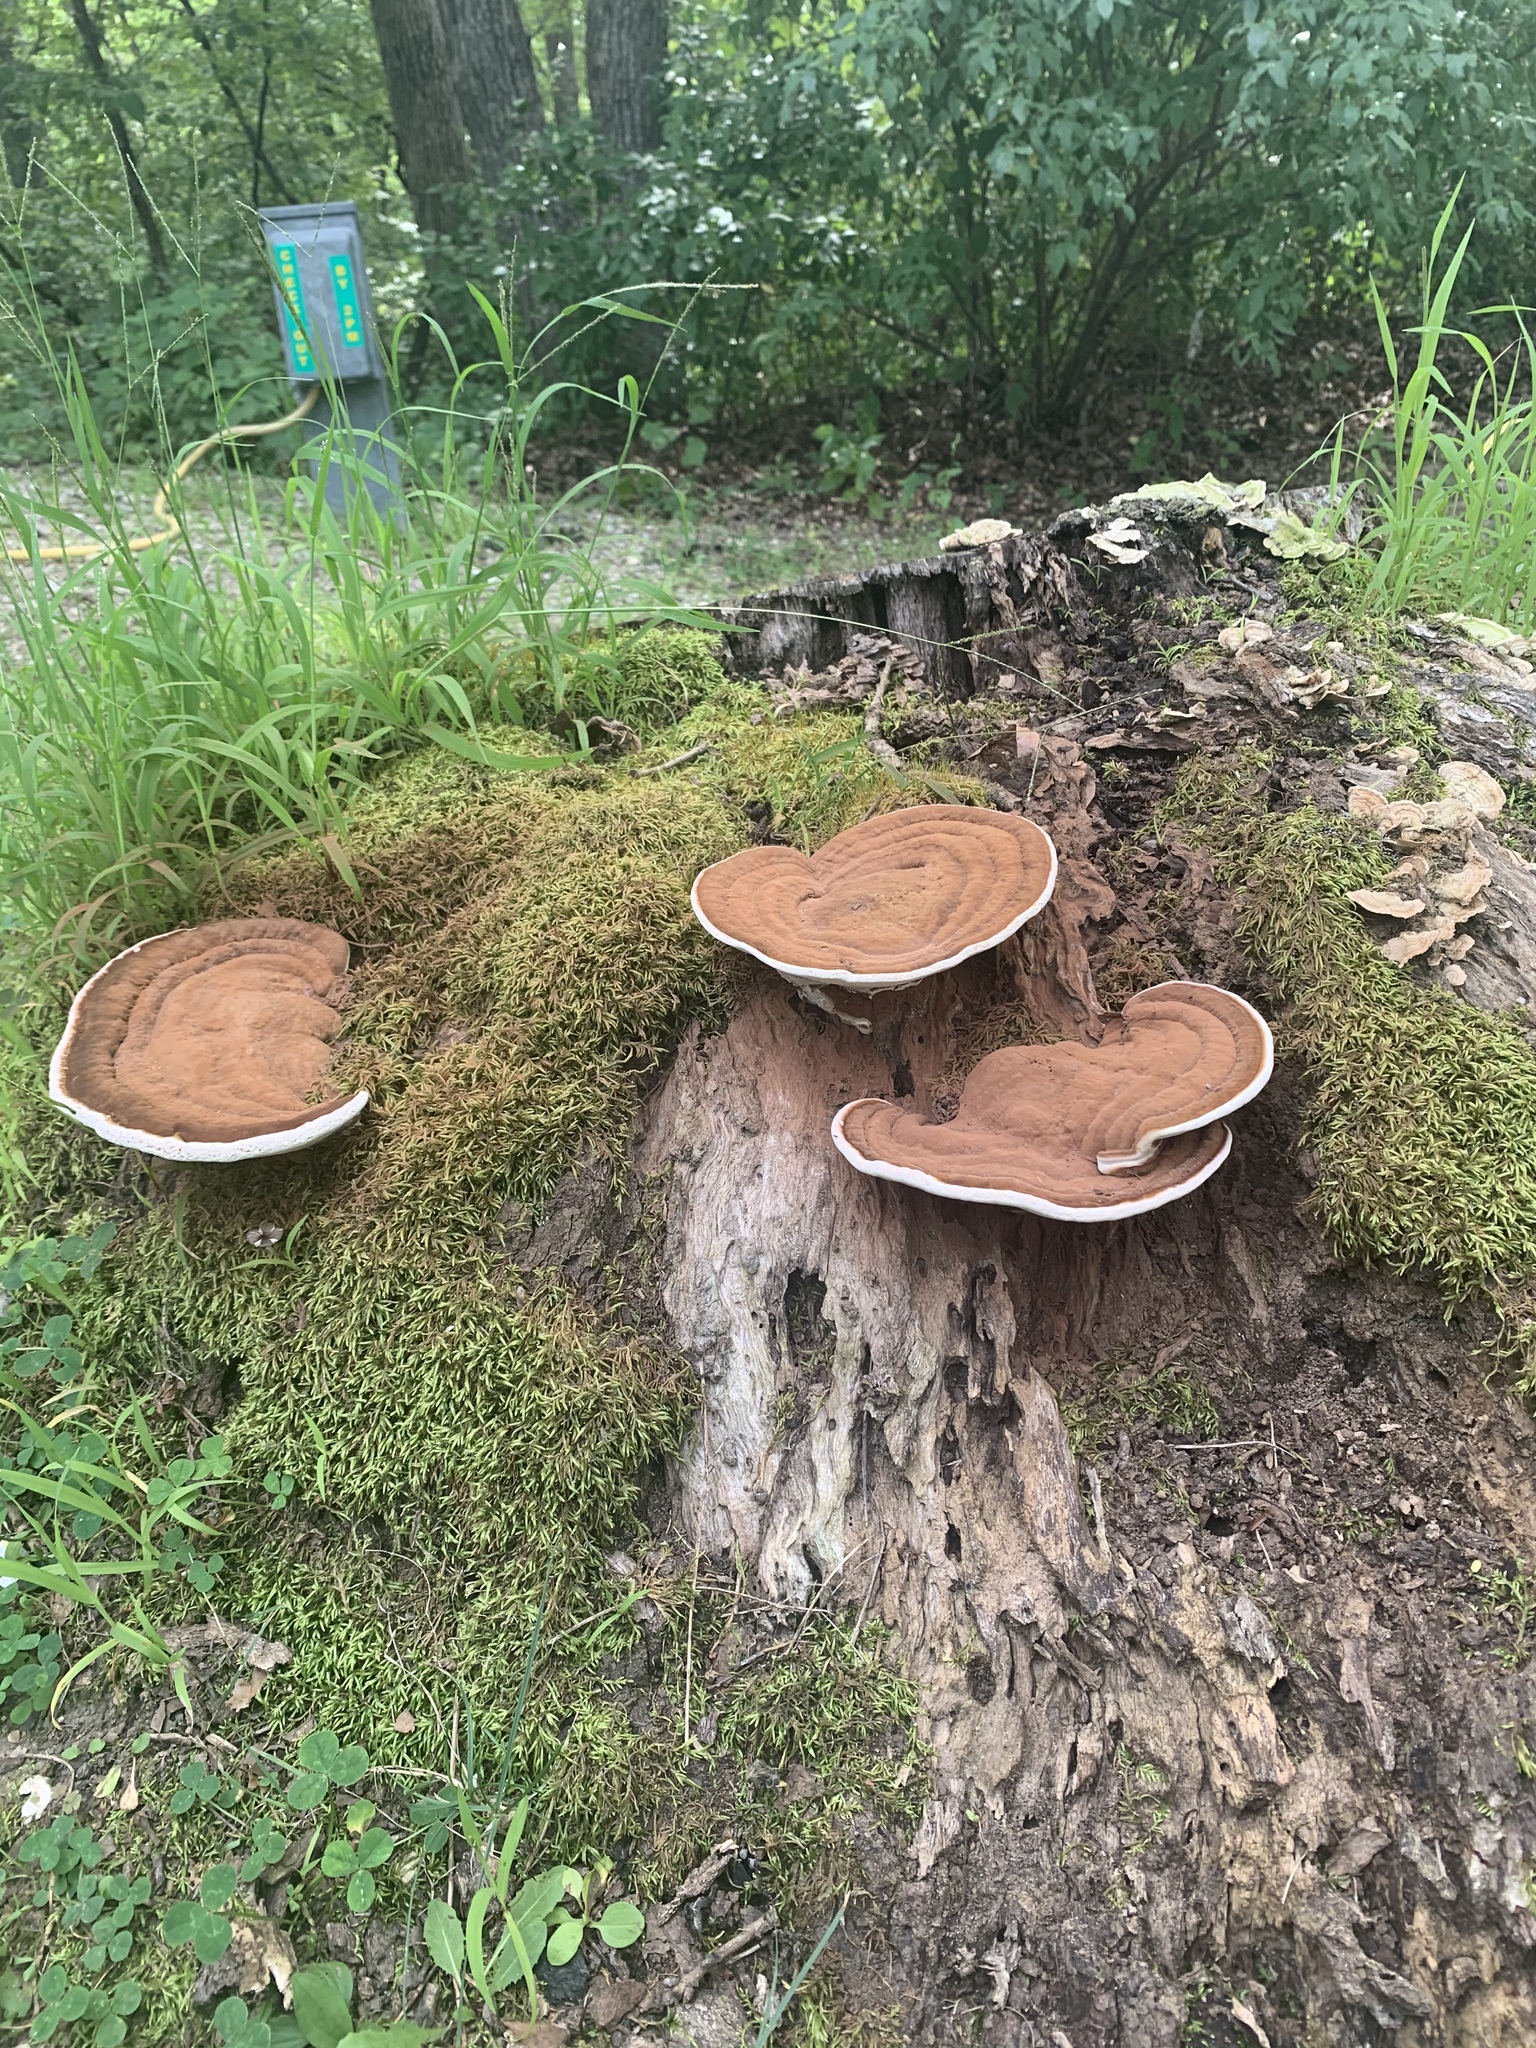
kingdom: Fungi
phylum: Basidiomycota
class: Agaricomycetes
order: Polyporales
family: Polyporaceae
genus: Ganoderma
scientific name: Ganoderma applanatum
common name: Artist's bracket
